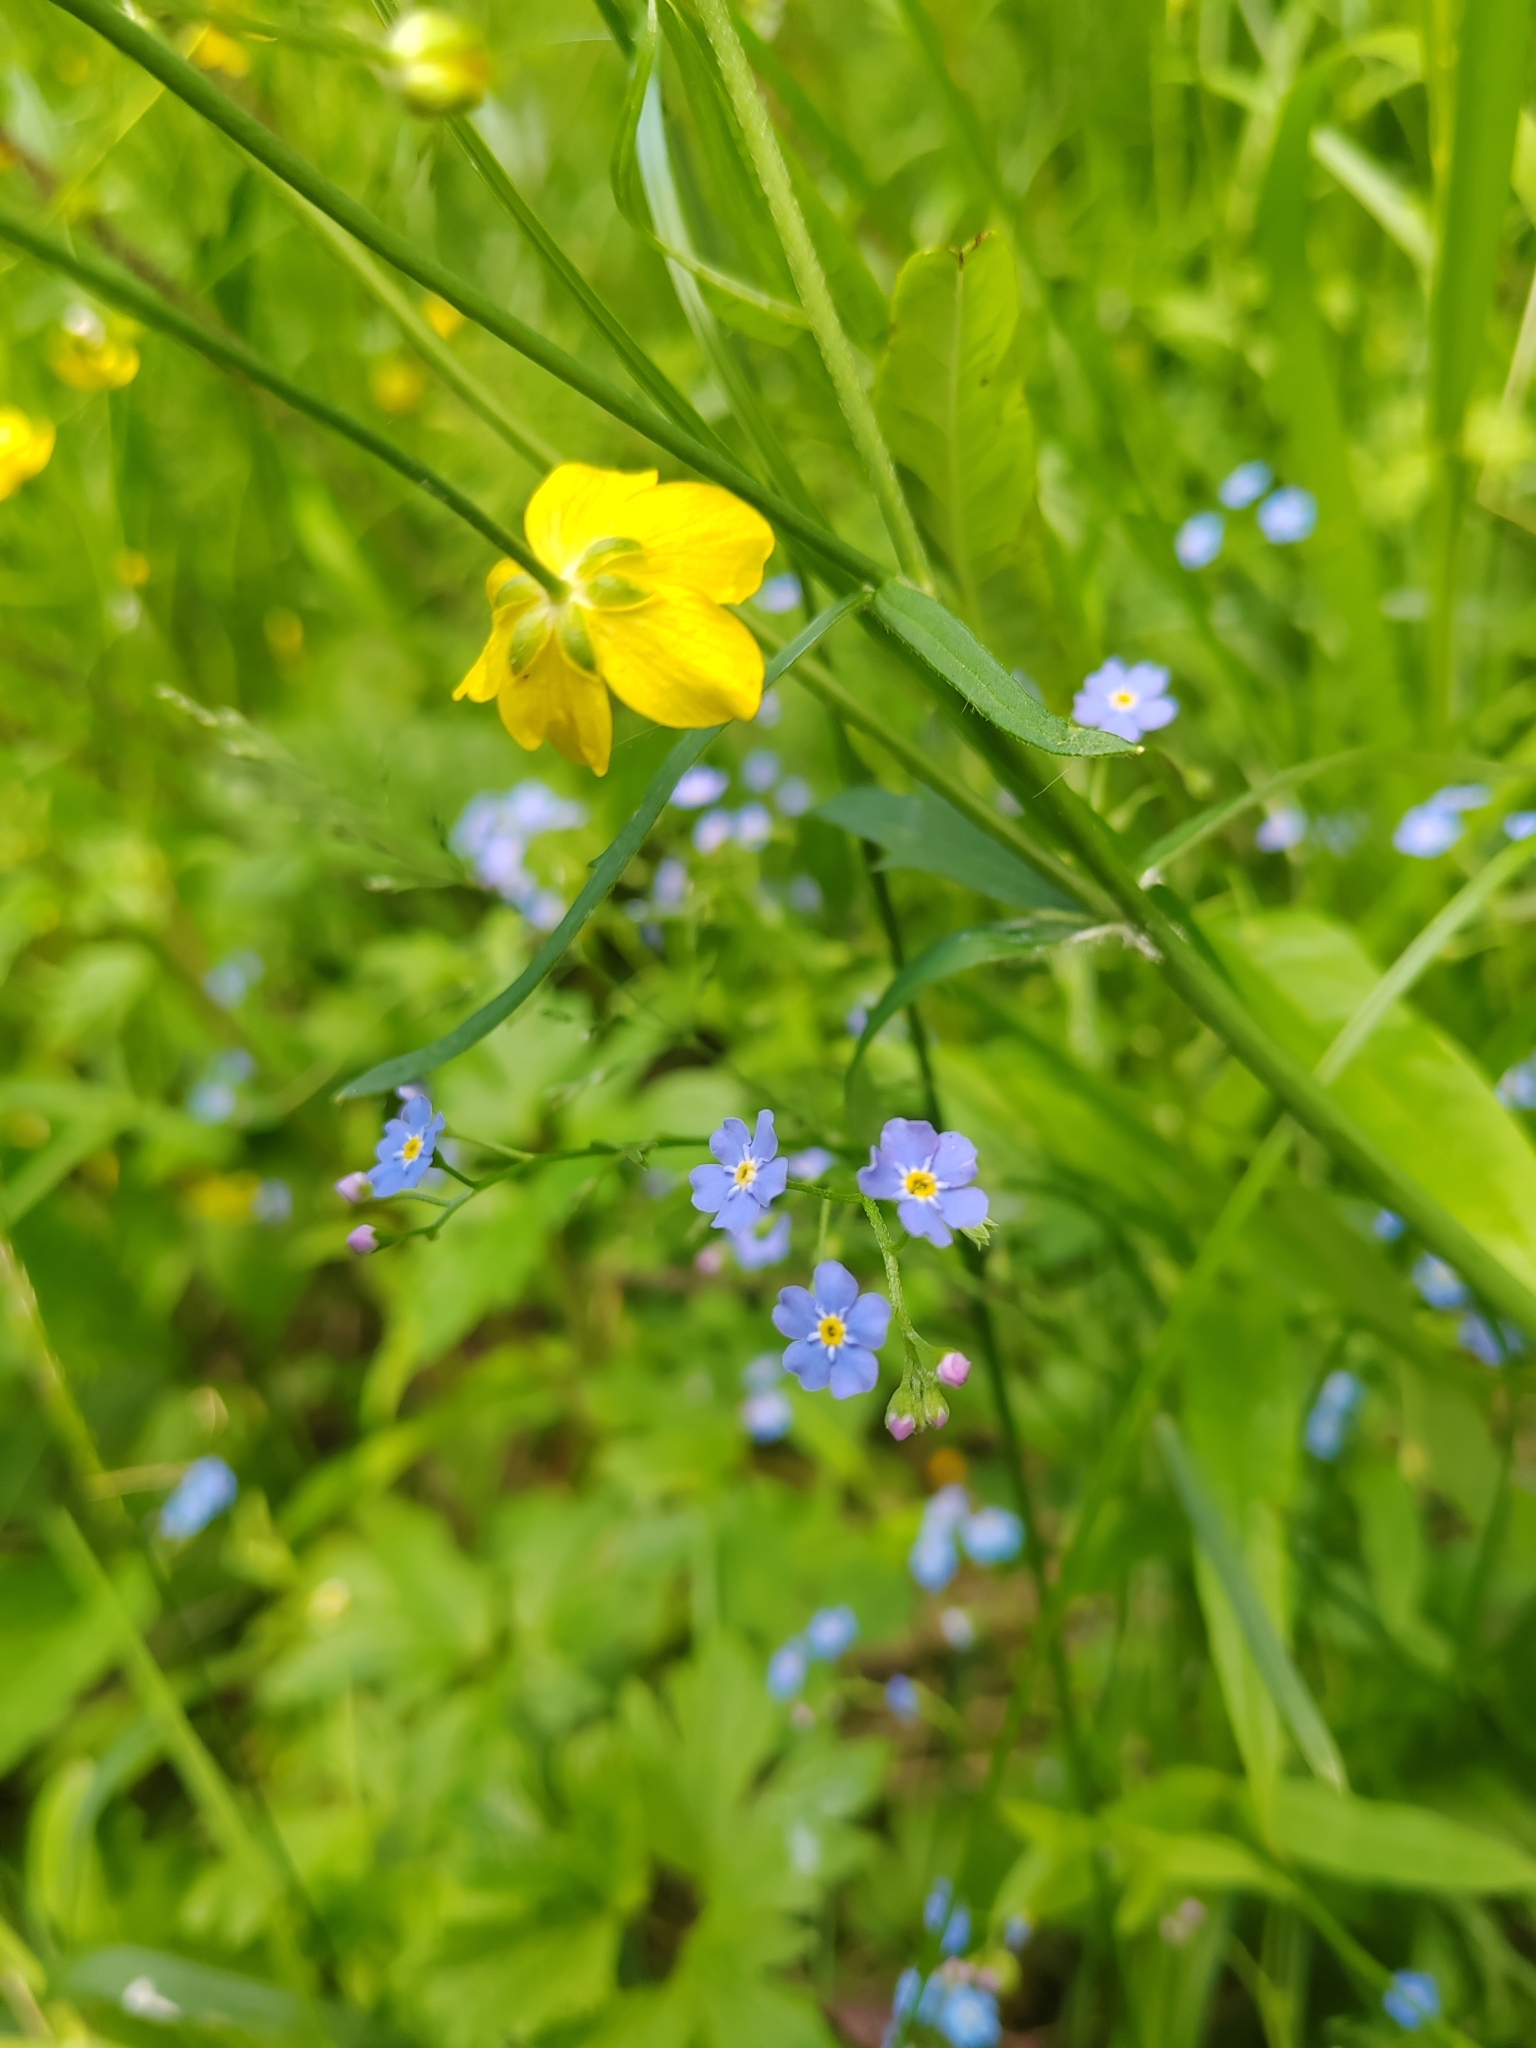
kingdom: Plantae
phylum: Tracheophyta
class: Magnoliopsida
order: Boraginales
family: Boraginaceae
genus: Myosotis
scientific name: Myosotis scorpioides
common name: Water forget-me-not
